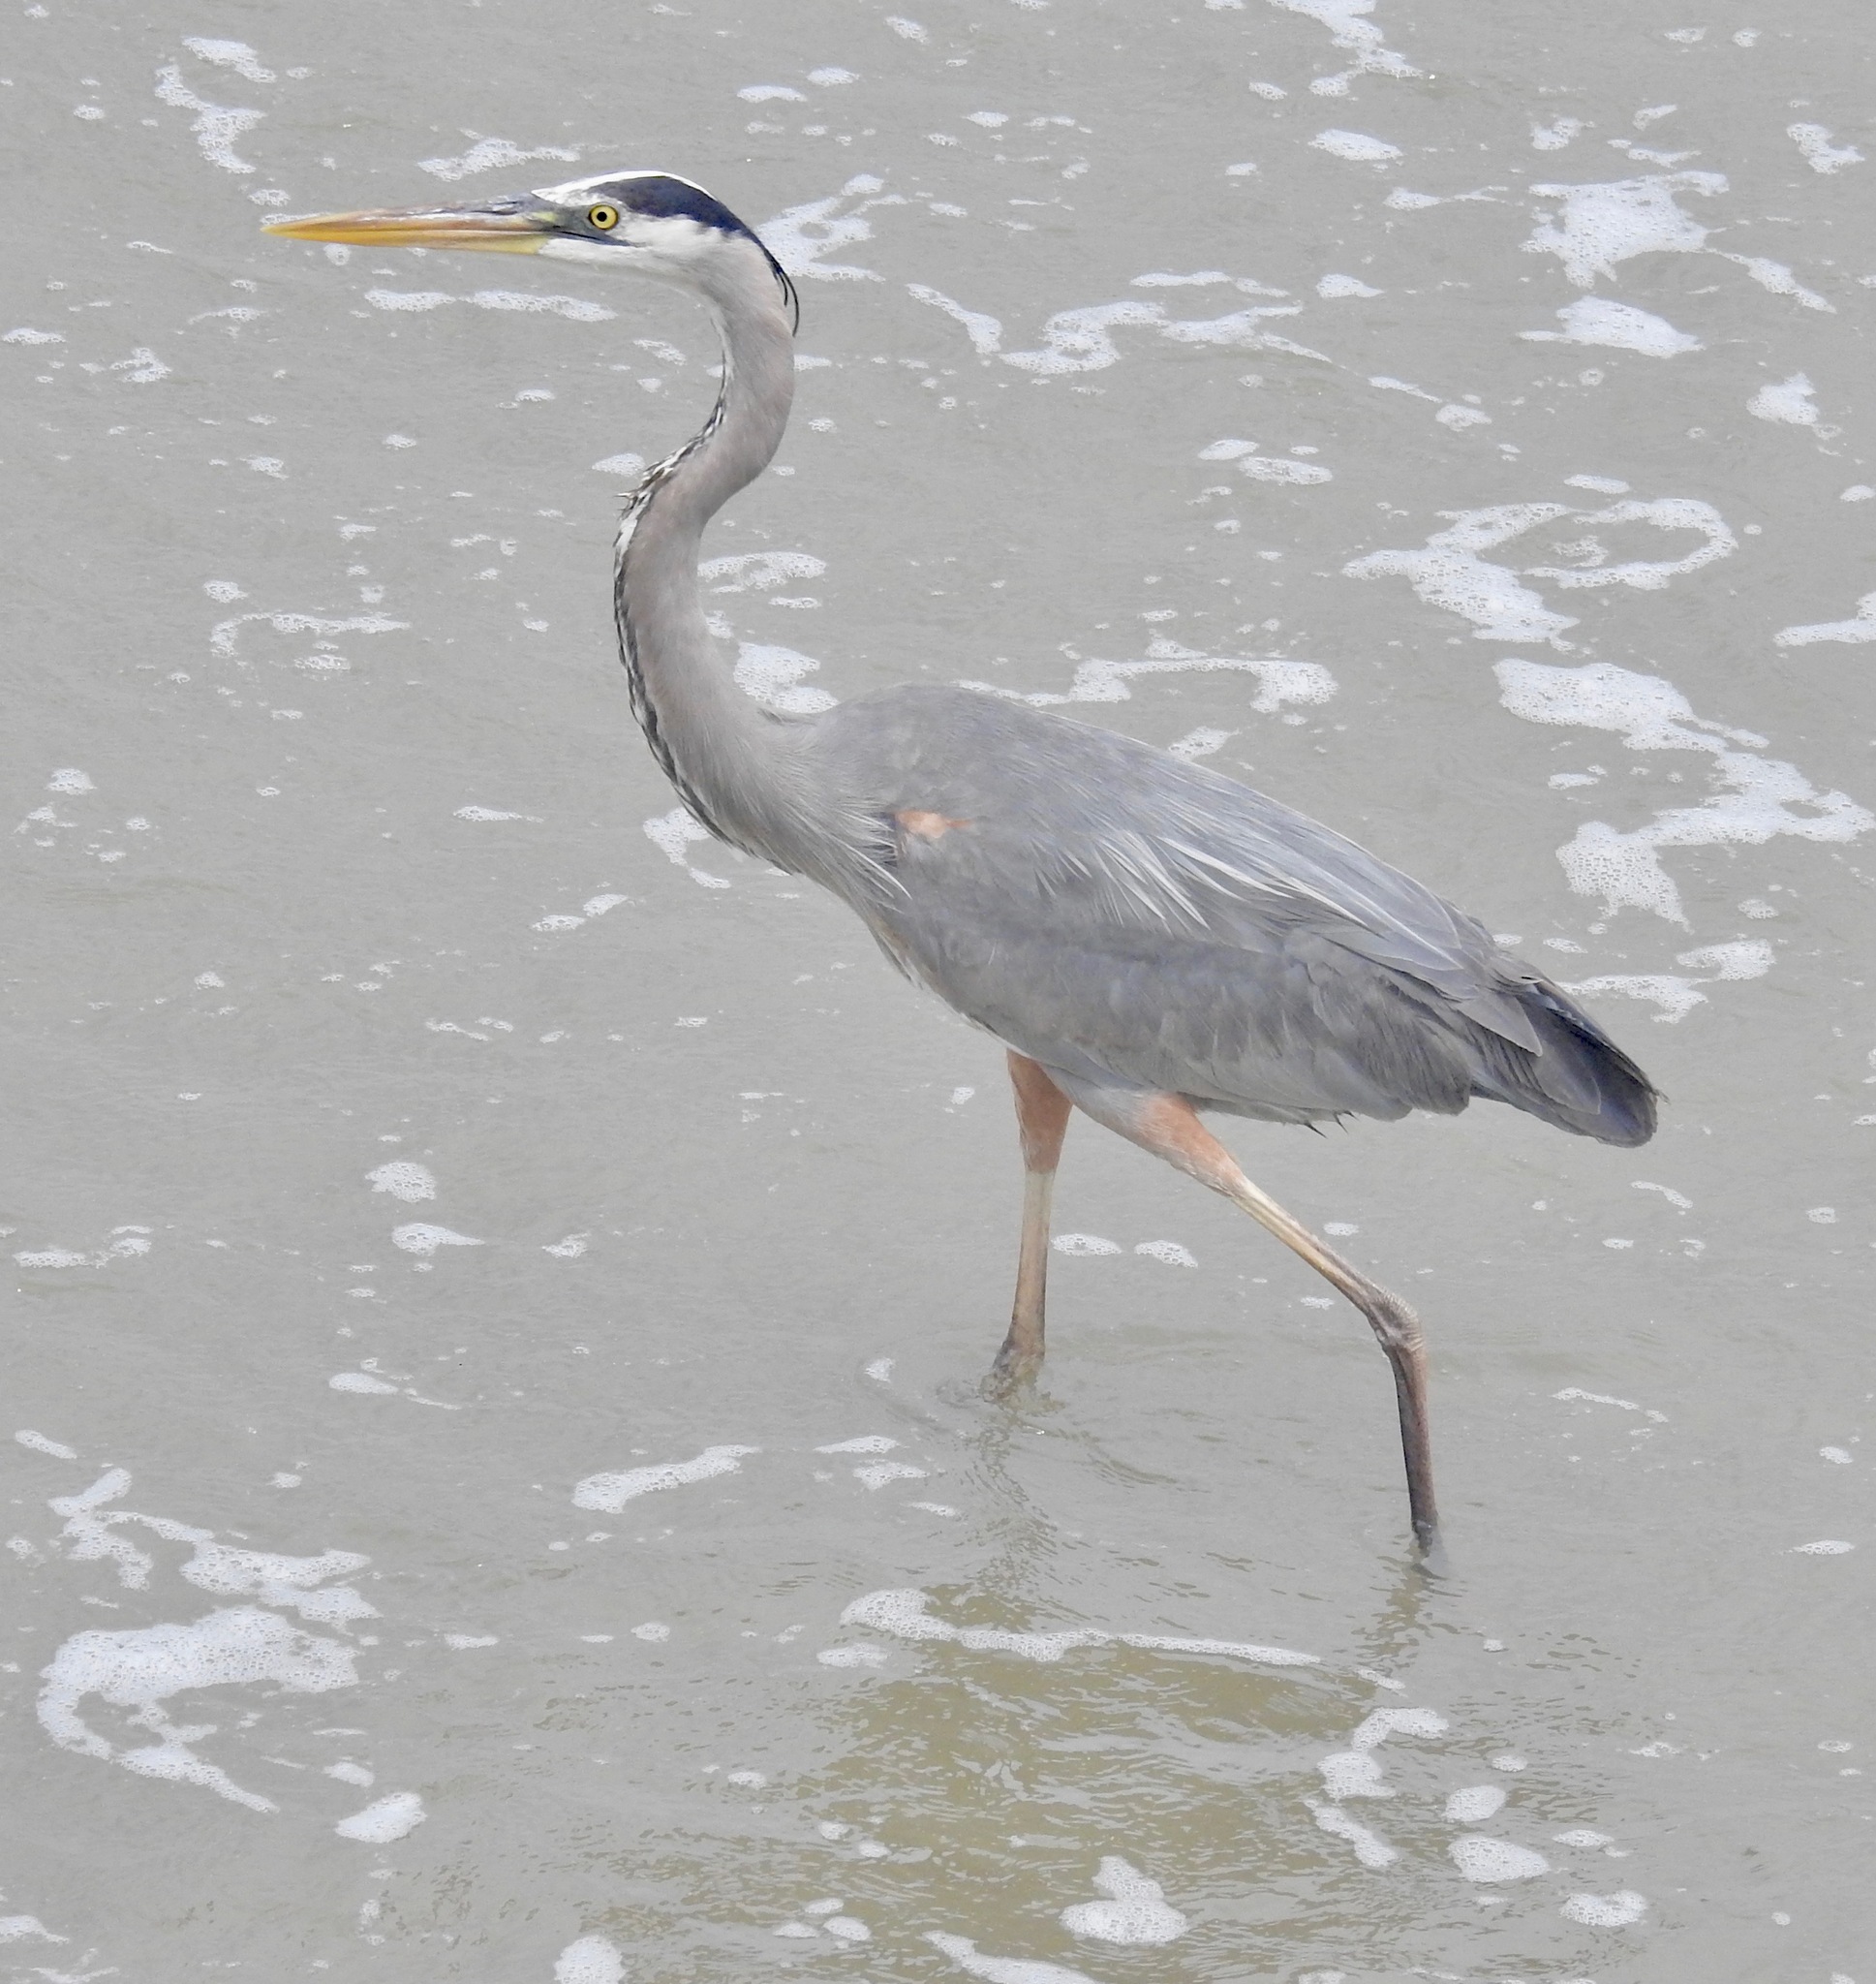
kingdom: Animalia
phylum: Chordata
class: Aves
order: Pelecaniformes
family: Ardeidae
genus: Ardea
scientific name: Ardea herodias
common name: Great blue heron
